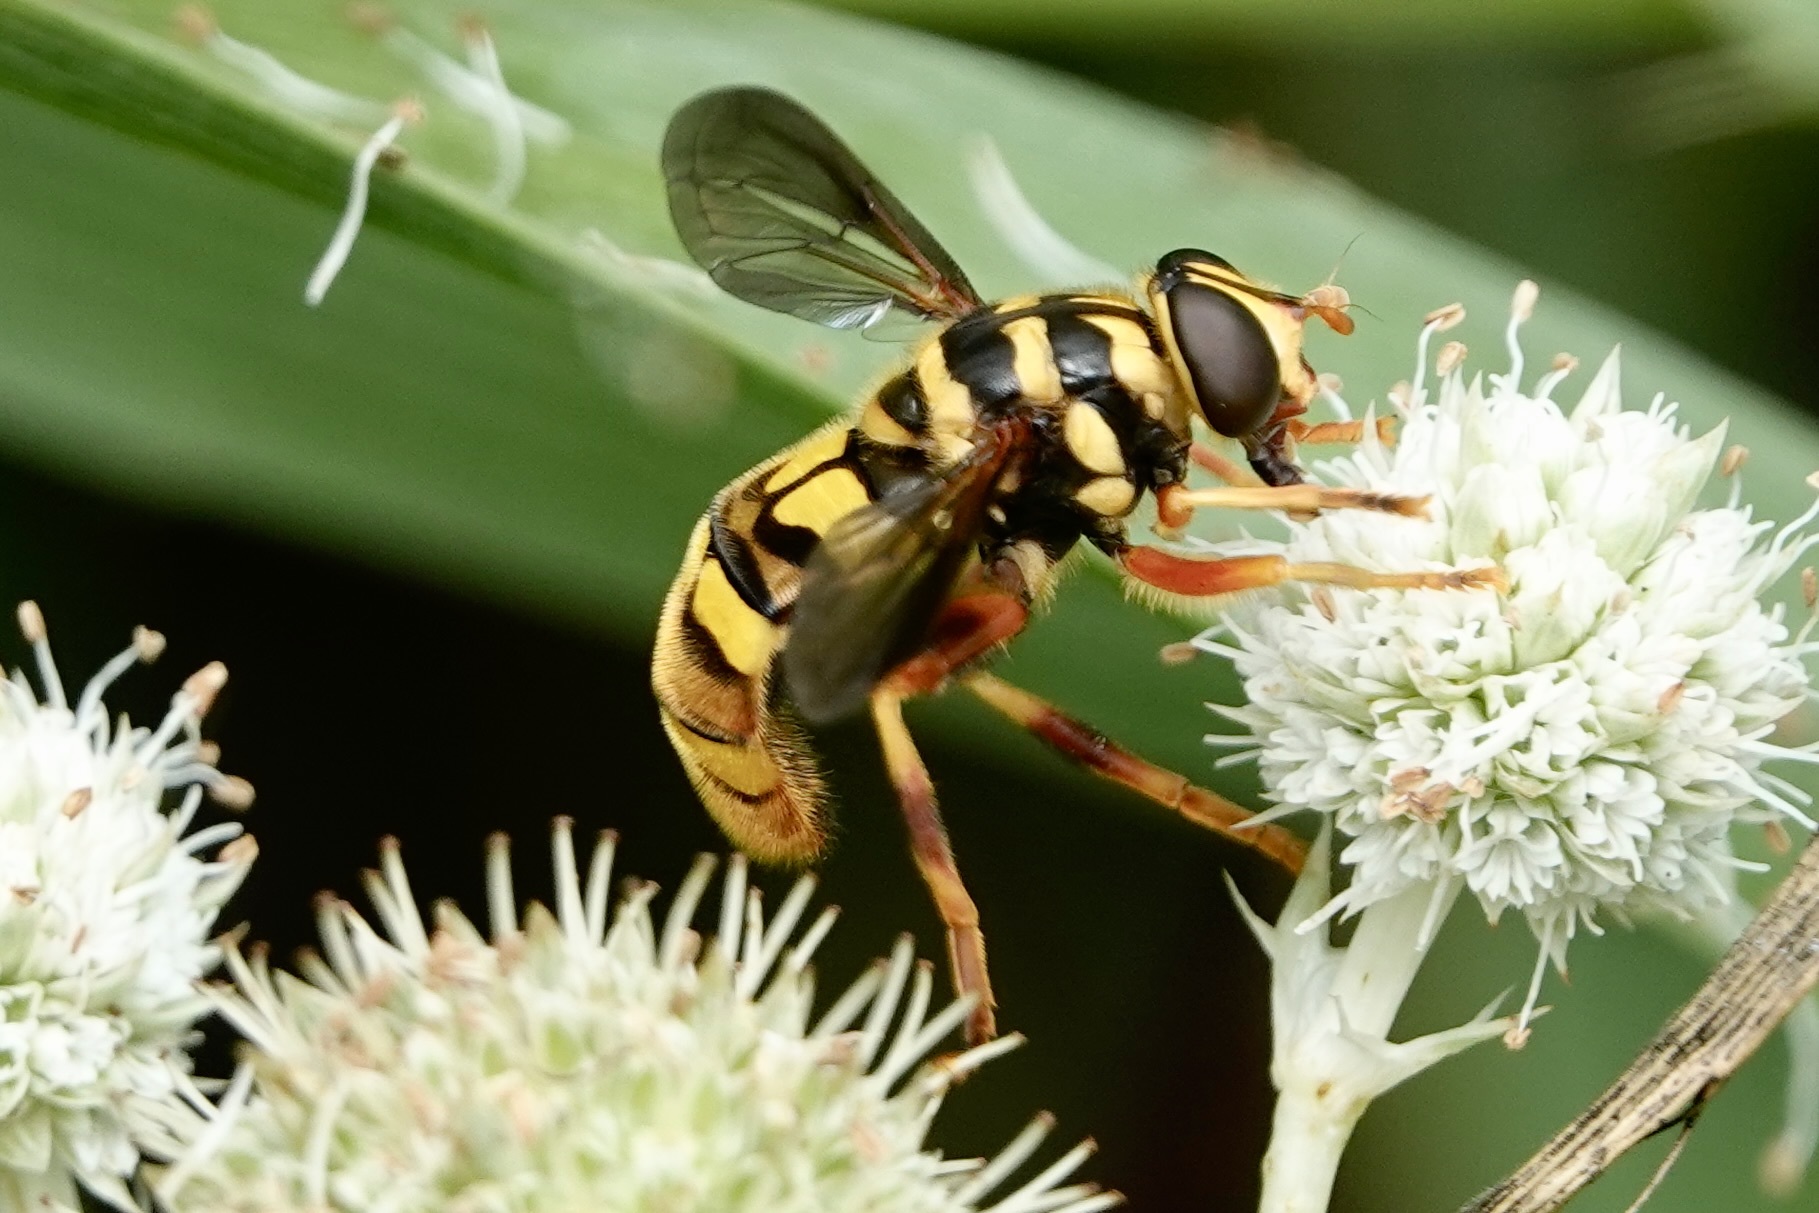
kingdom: Animalia
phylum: Arthropoda
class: Insecta
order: Diptera
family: Syrphidae
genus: Milesia
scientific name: Milesia virginiensis
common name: Virginia giant
